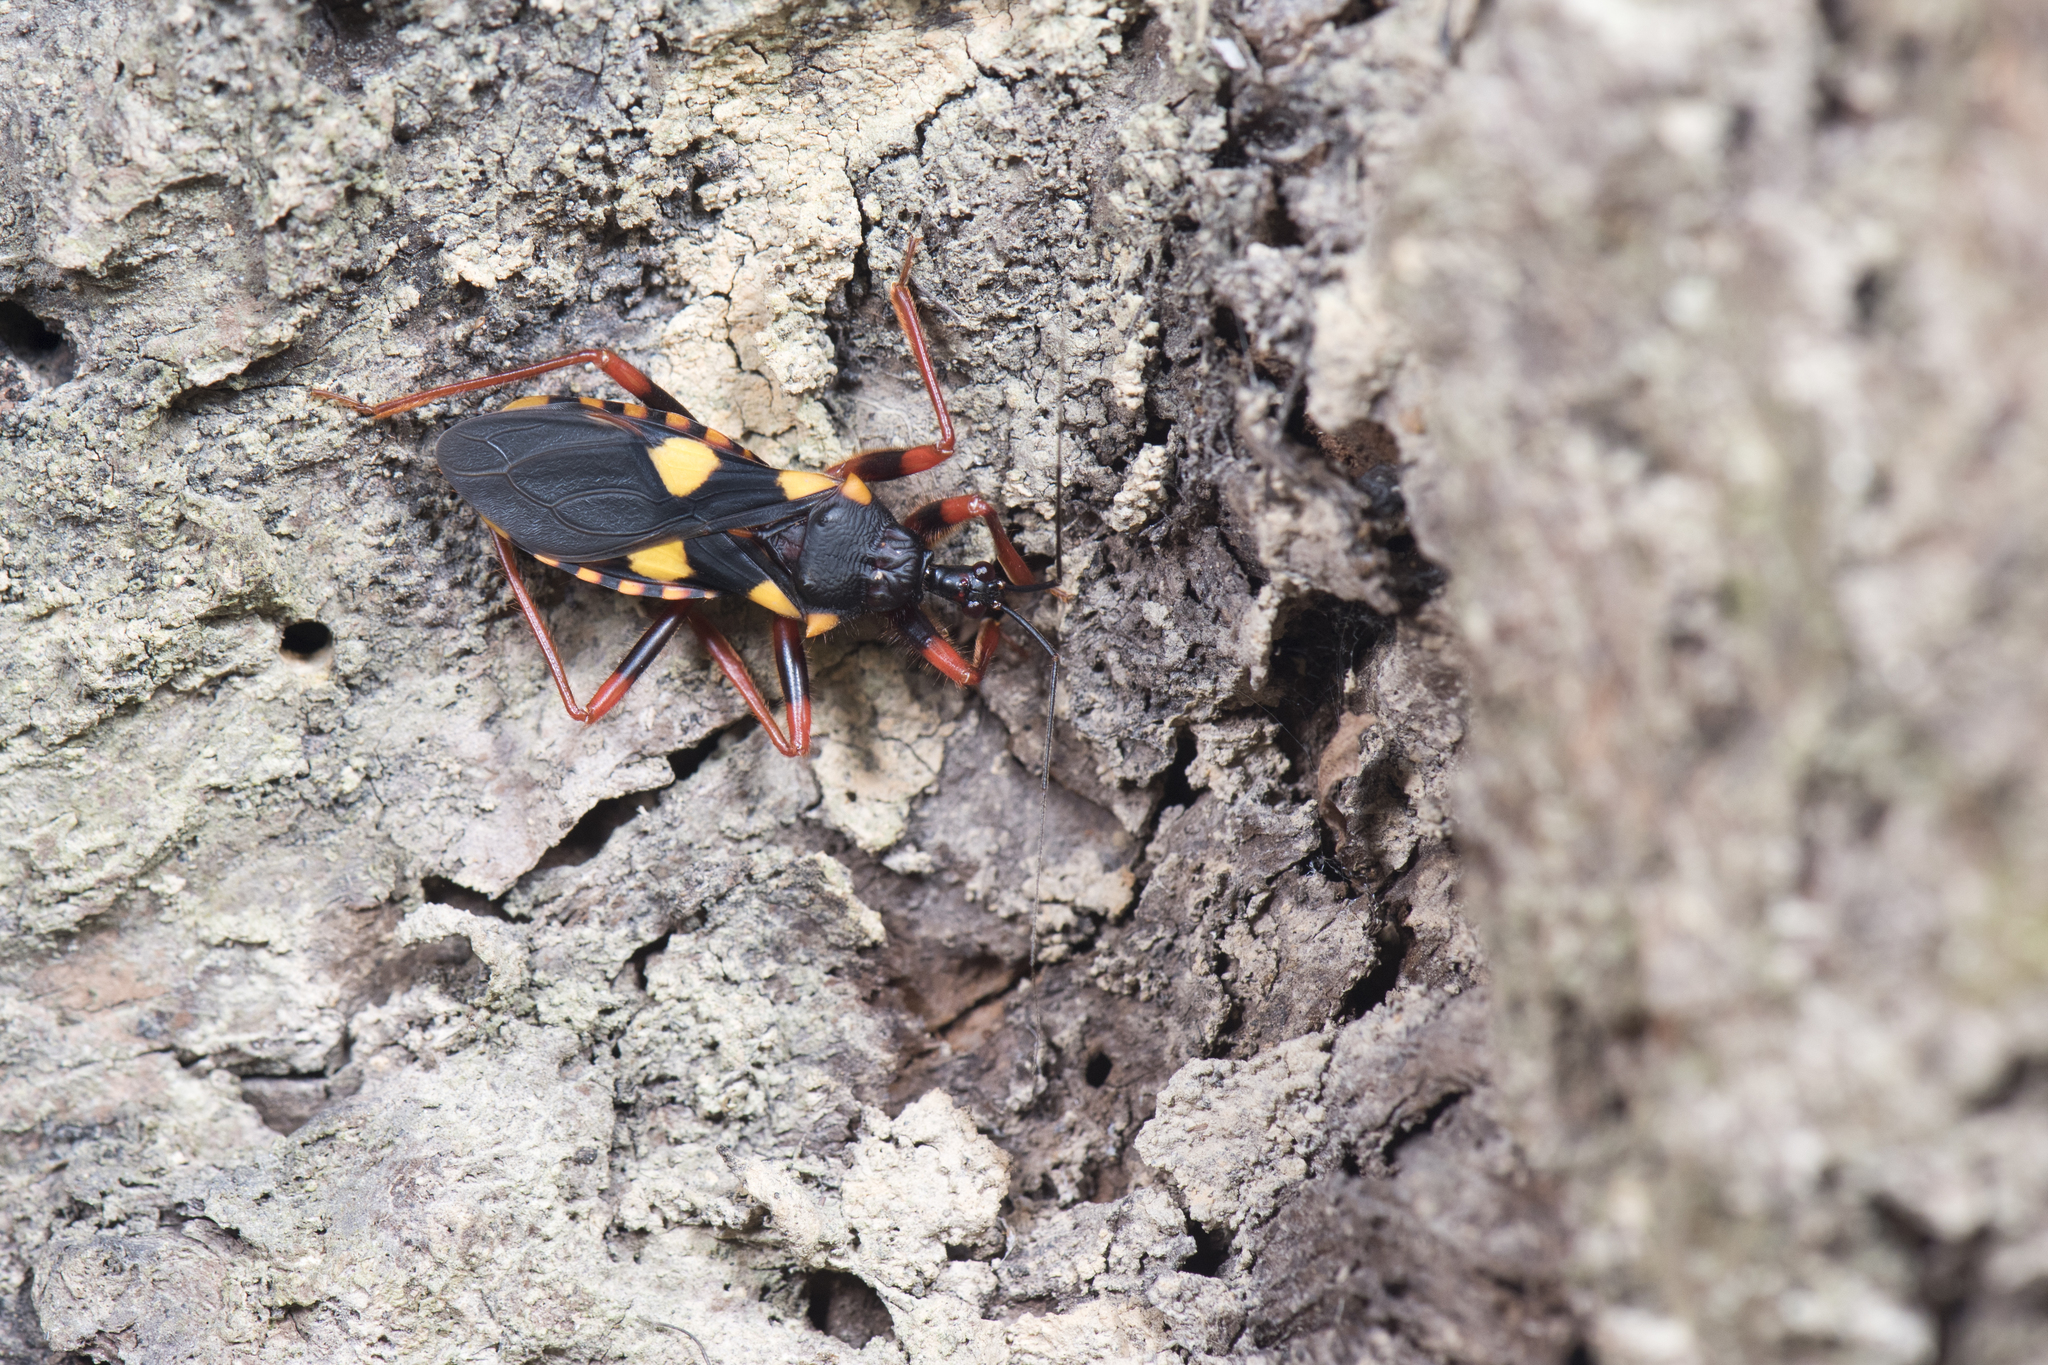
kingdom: Animalia
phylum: Arthropoda
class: Insecta
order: Hemiptera
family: Reduviidae
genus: Acanthaspis
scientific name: Acanthaspis immodesta
